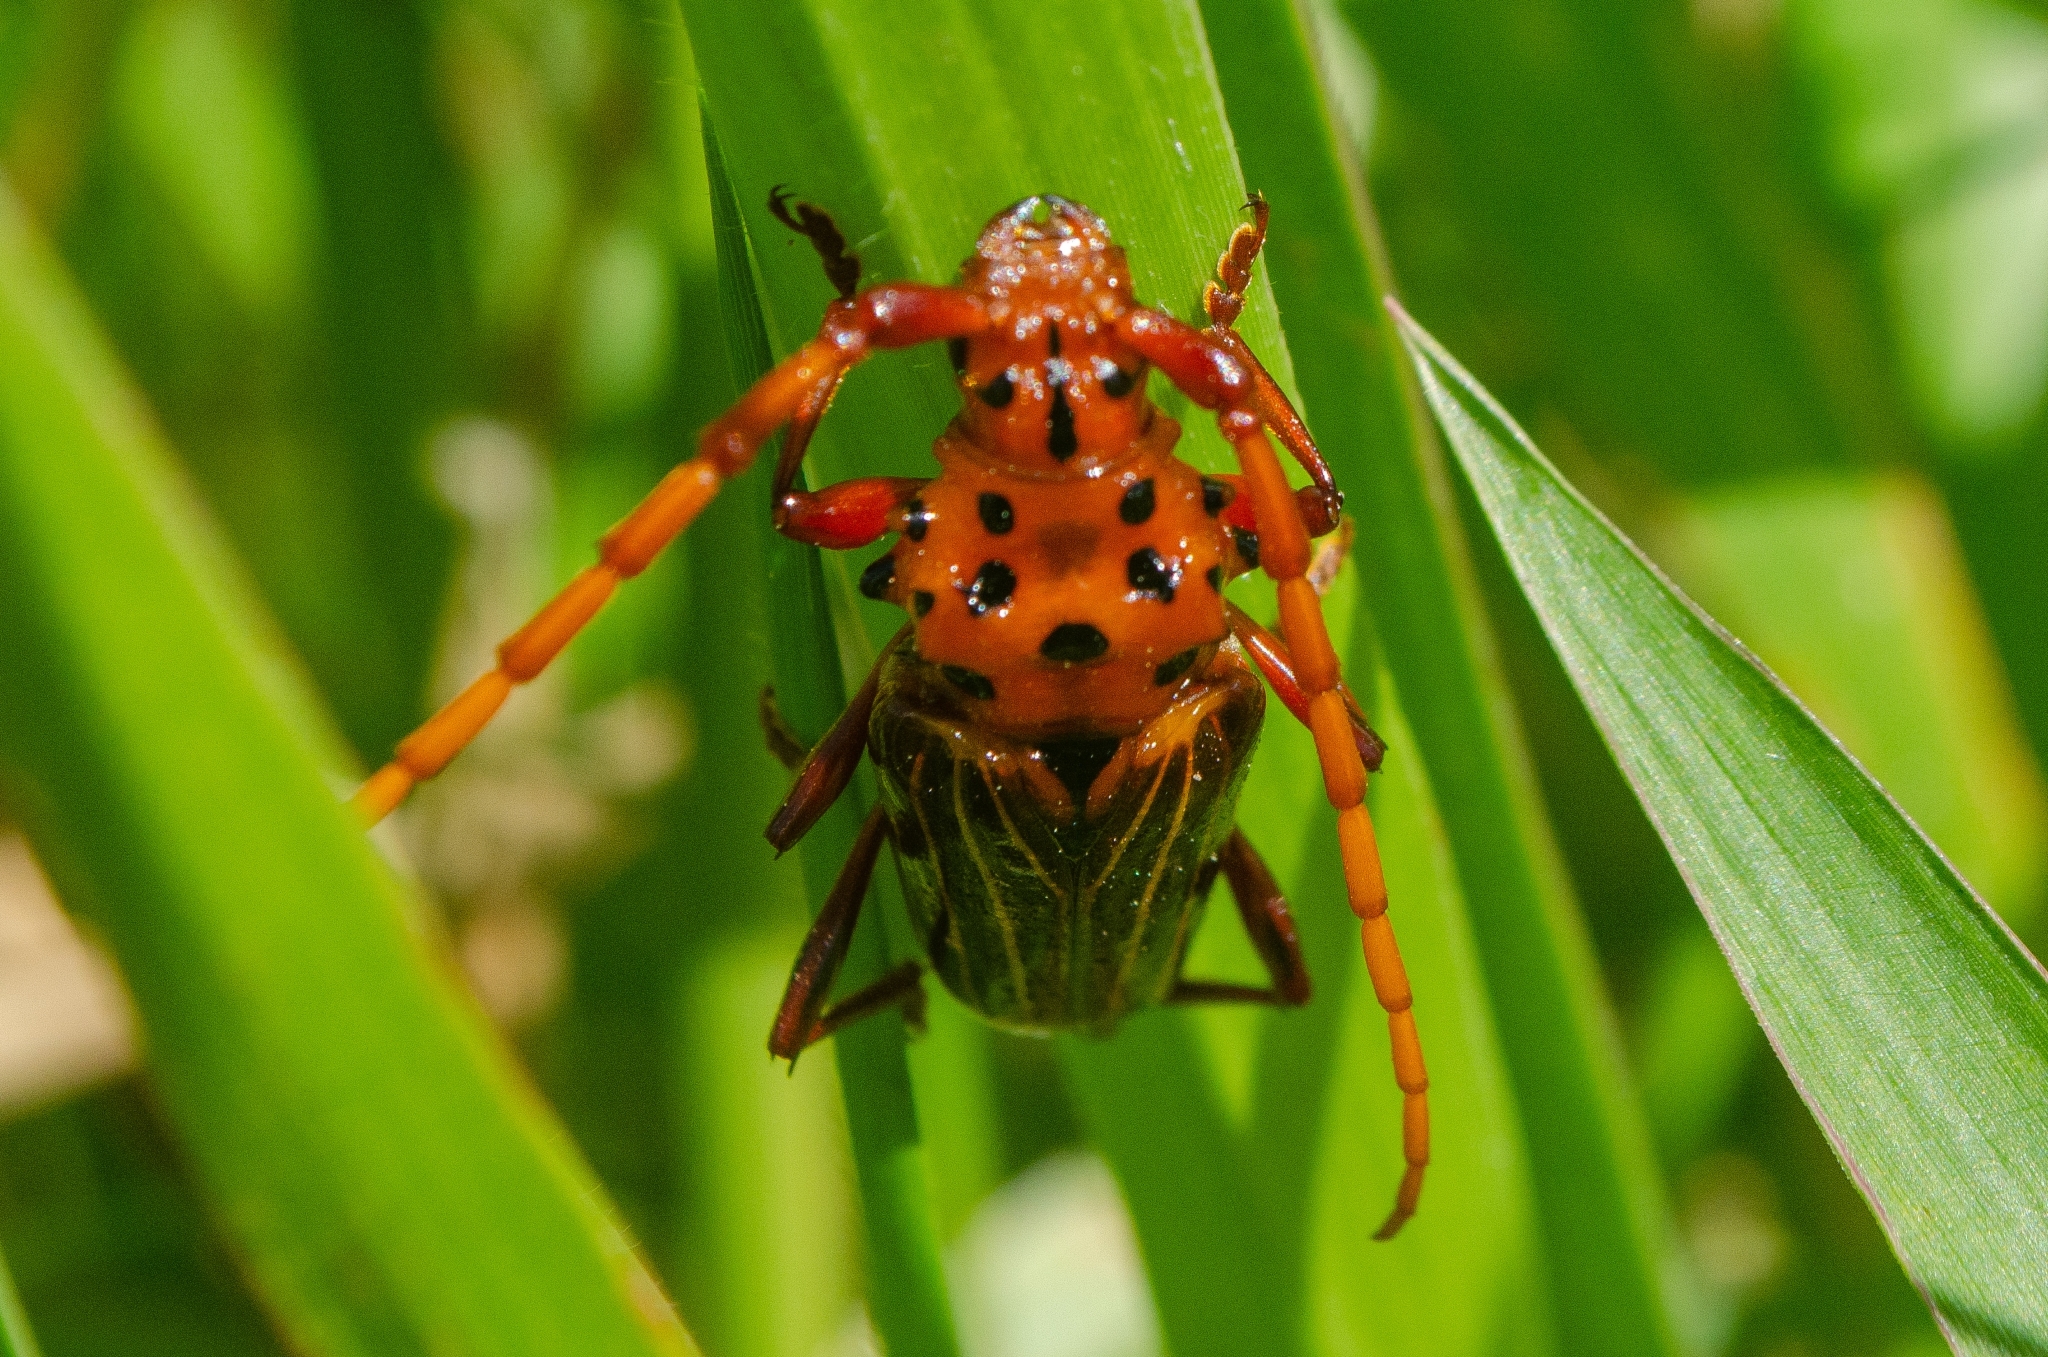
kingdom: Animalia
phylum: Arthropoda
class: Insecta
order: Coleoptera
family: Cerambycidae
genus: Chydarteres
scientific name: Chydarteres striatus
